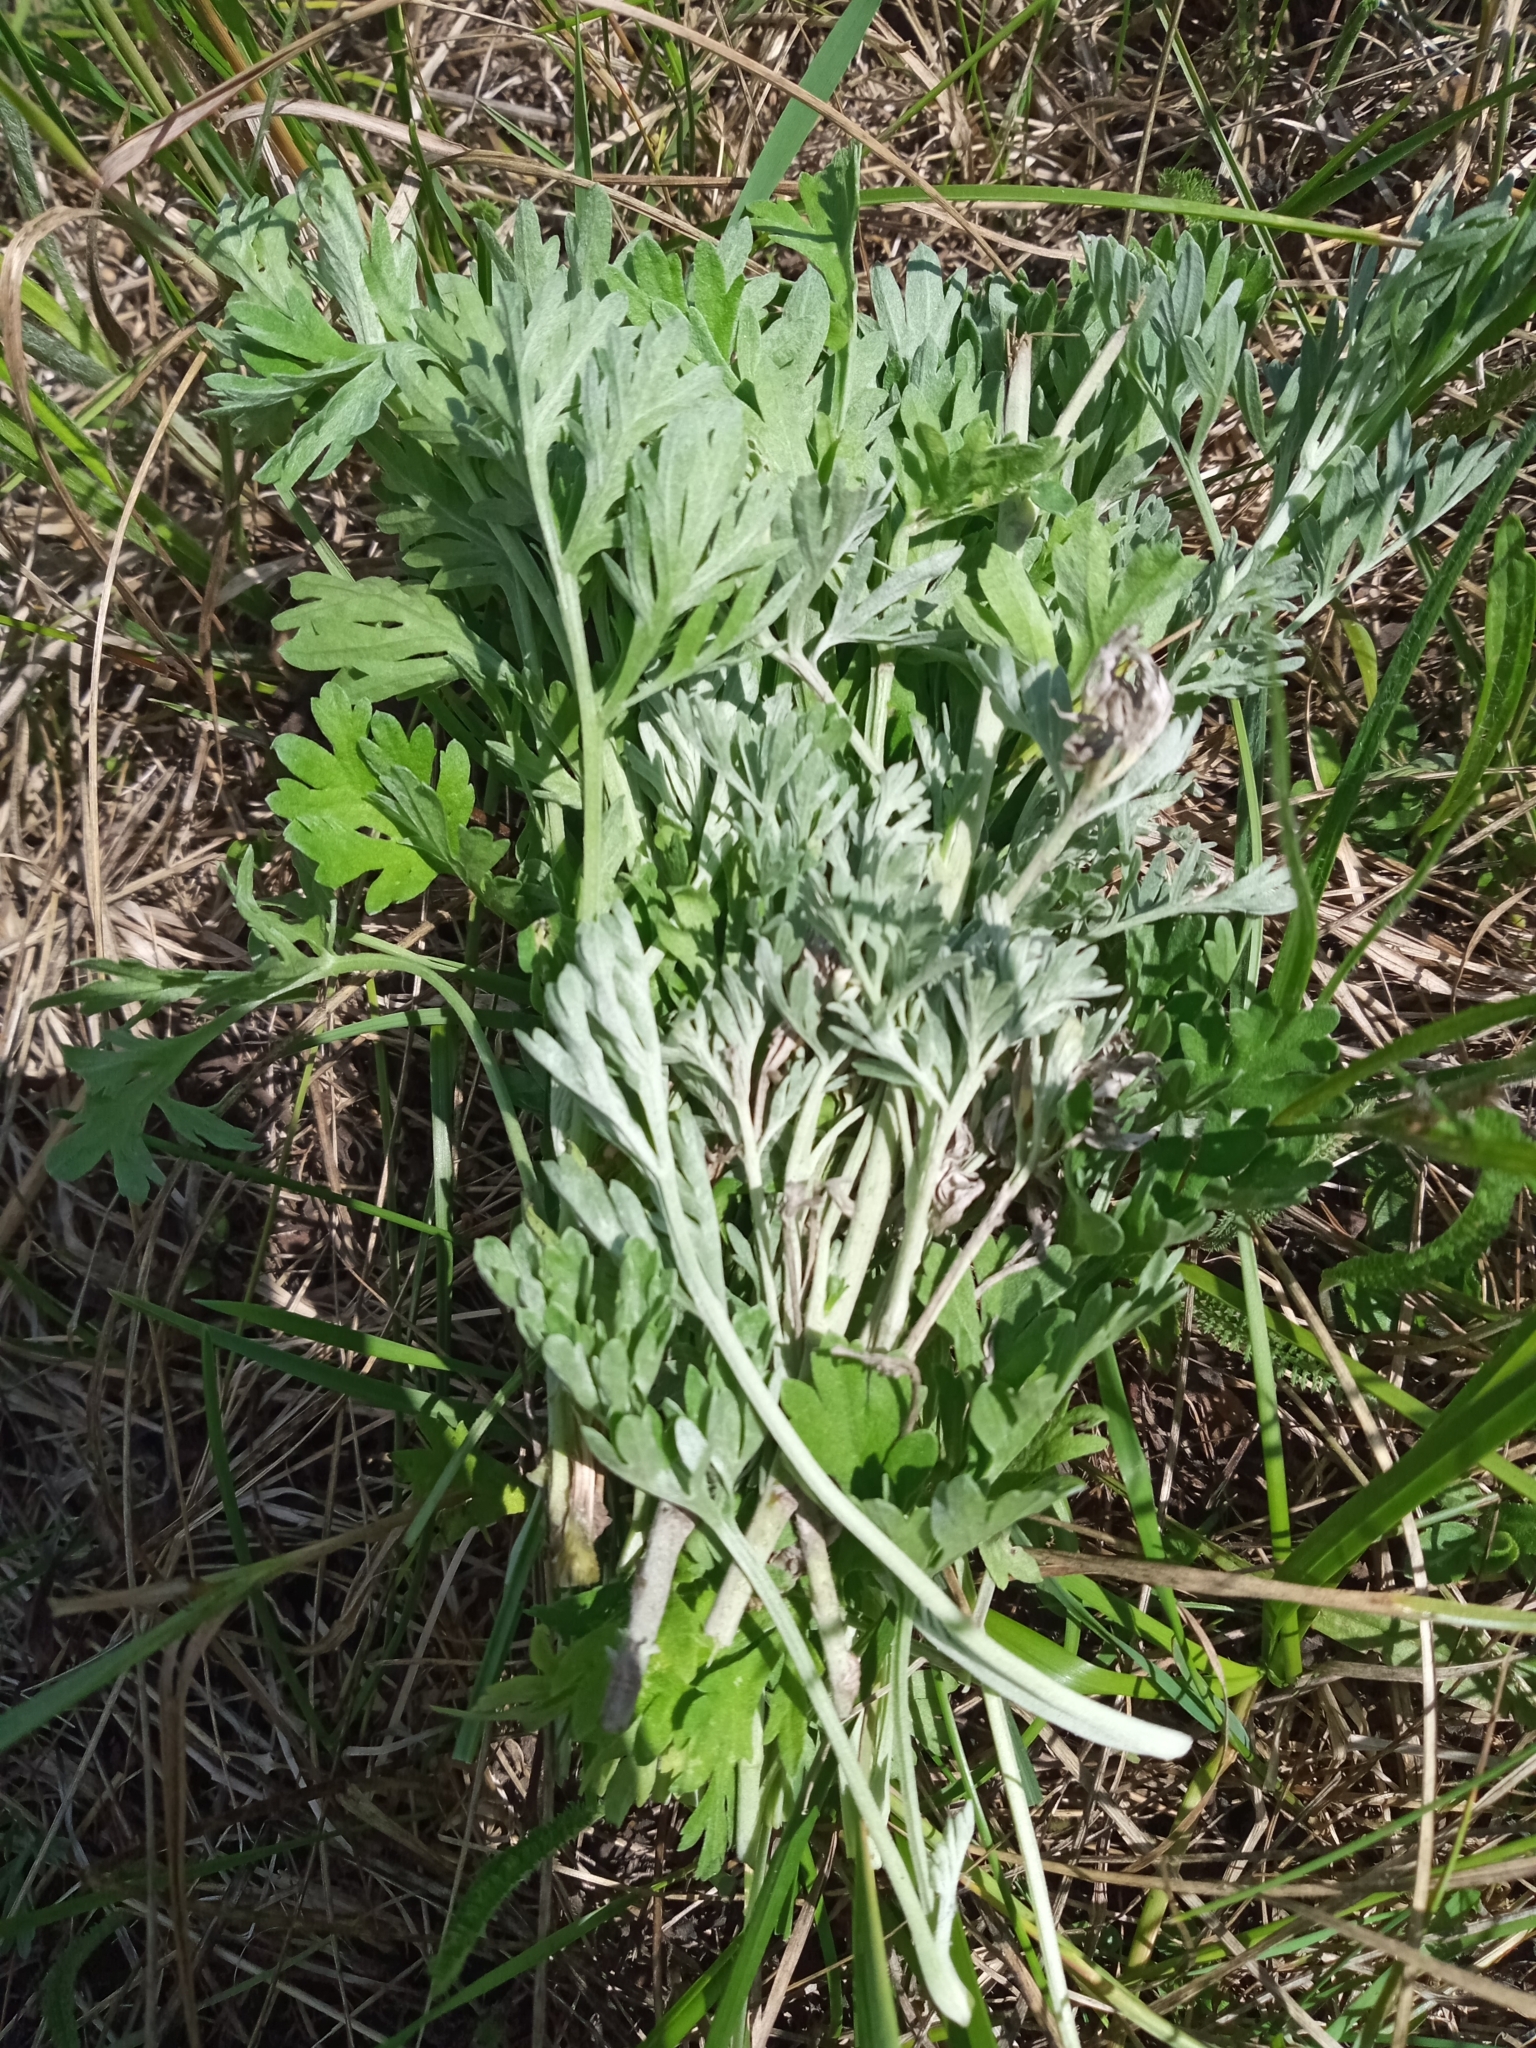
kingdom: Plantae
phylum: Tracheophyta
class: Magnoliopsida
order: Asterales
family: Asteraceae
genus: Artemisia
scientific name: Artemisia absinthium
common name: Wormwood
